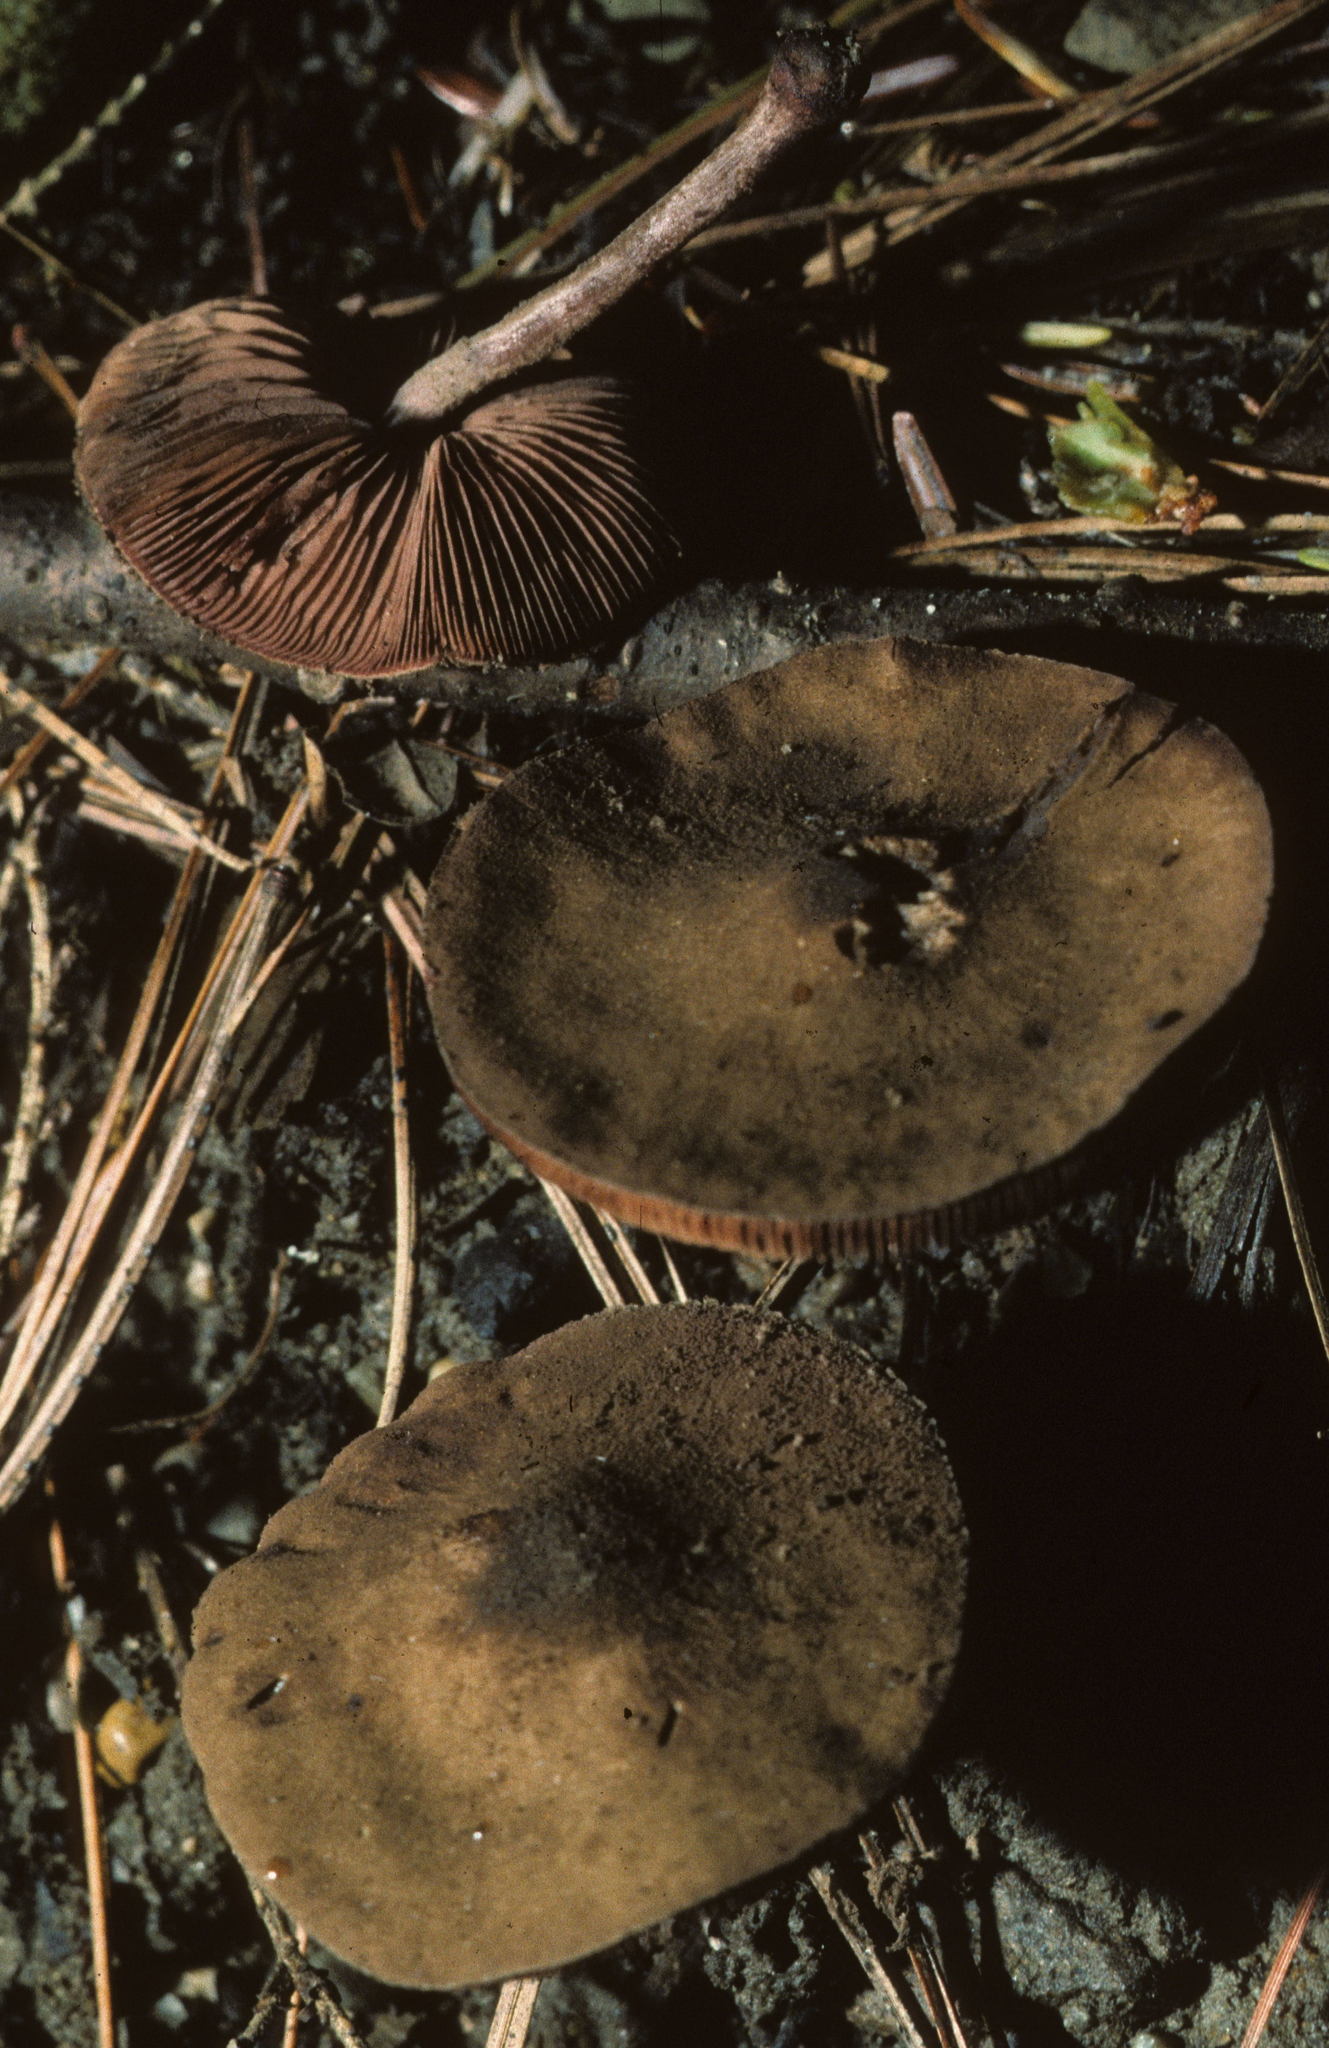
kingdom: Fungi
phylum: Basidiomycota
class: Agaricomycetes
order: Agaricales
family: Agaricaceae
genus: Melanophyllum
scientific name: Melanophyllum haematospermum
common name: Redspored dapperling
